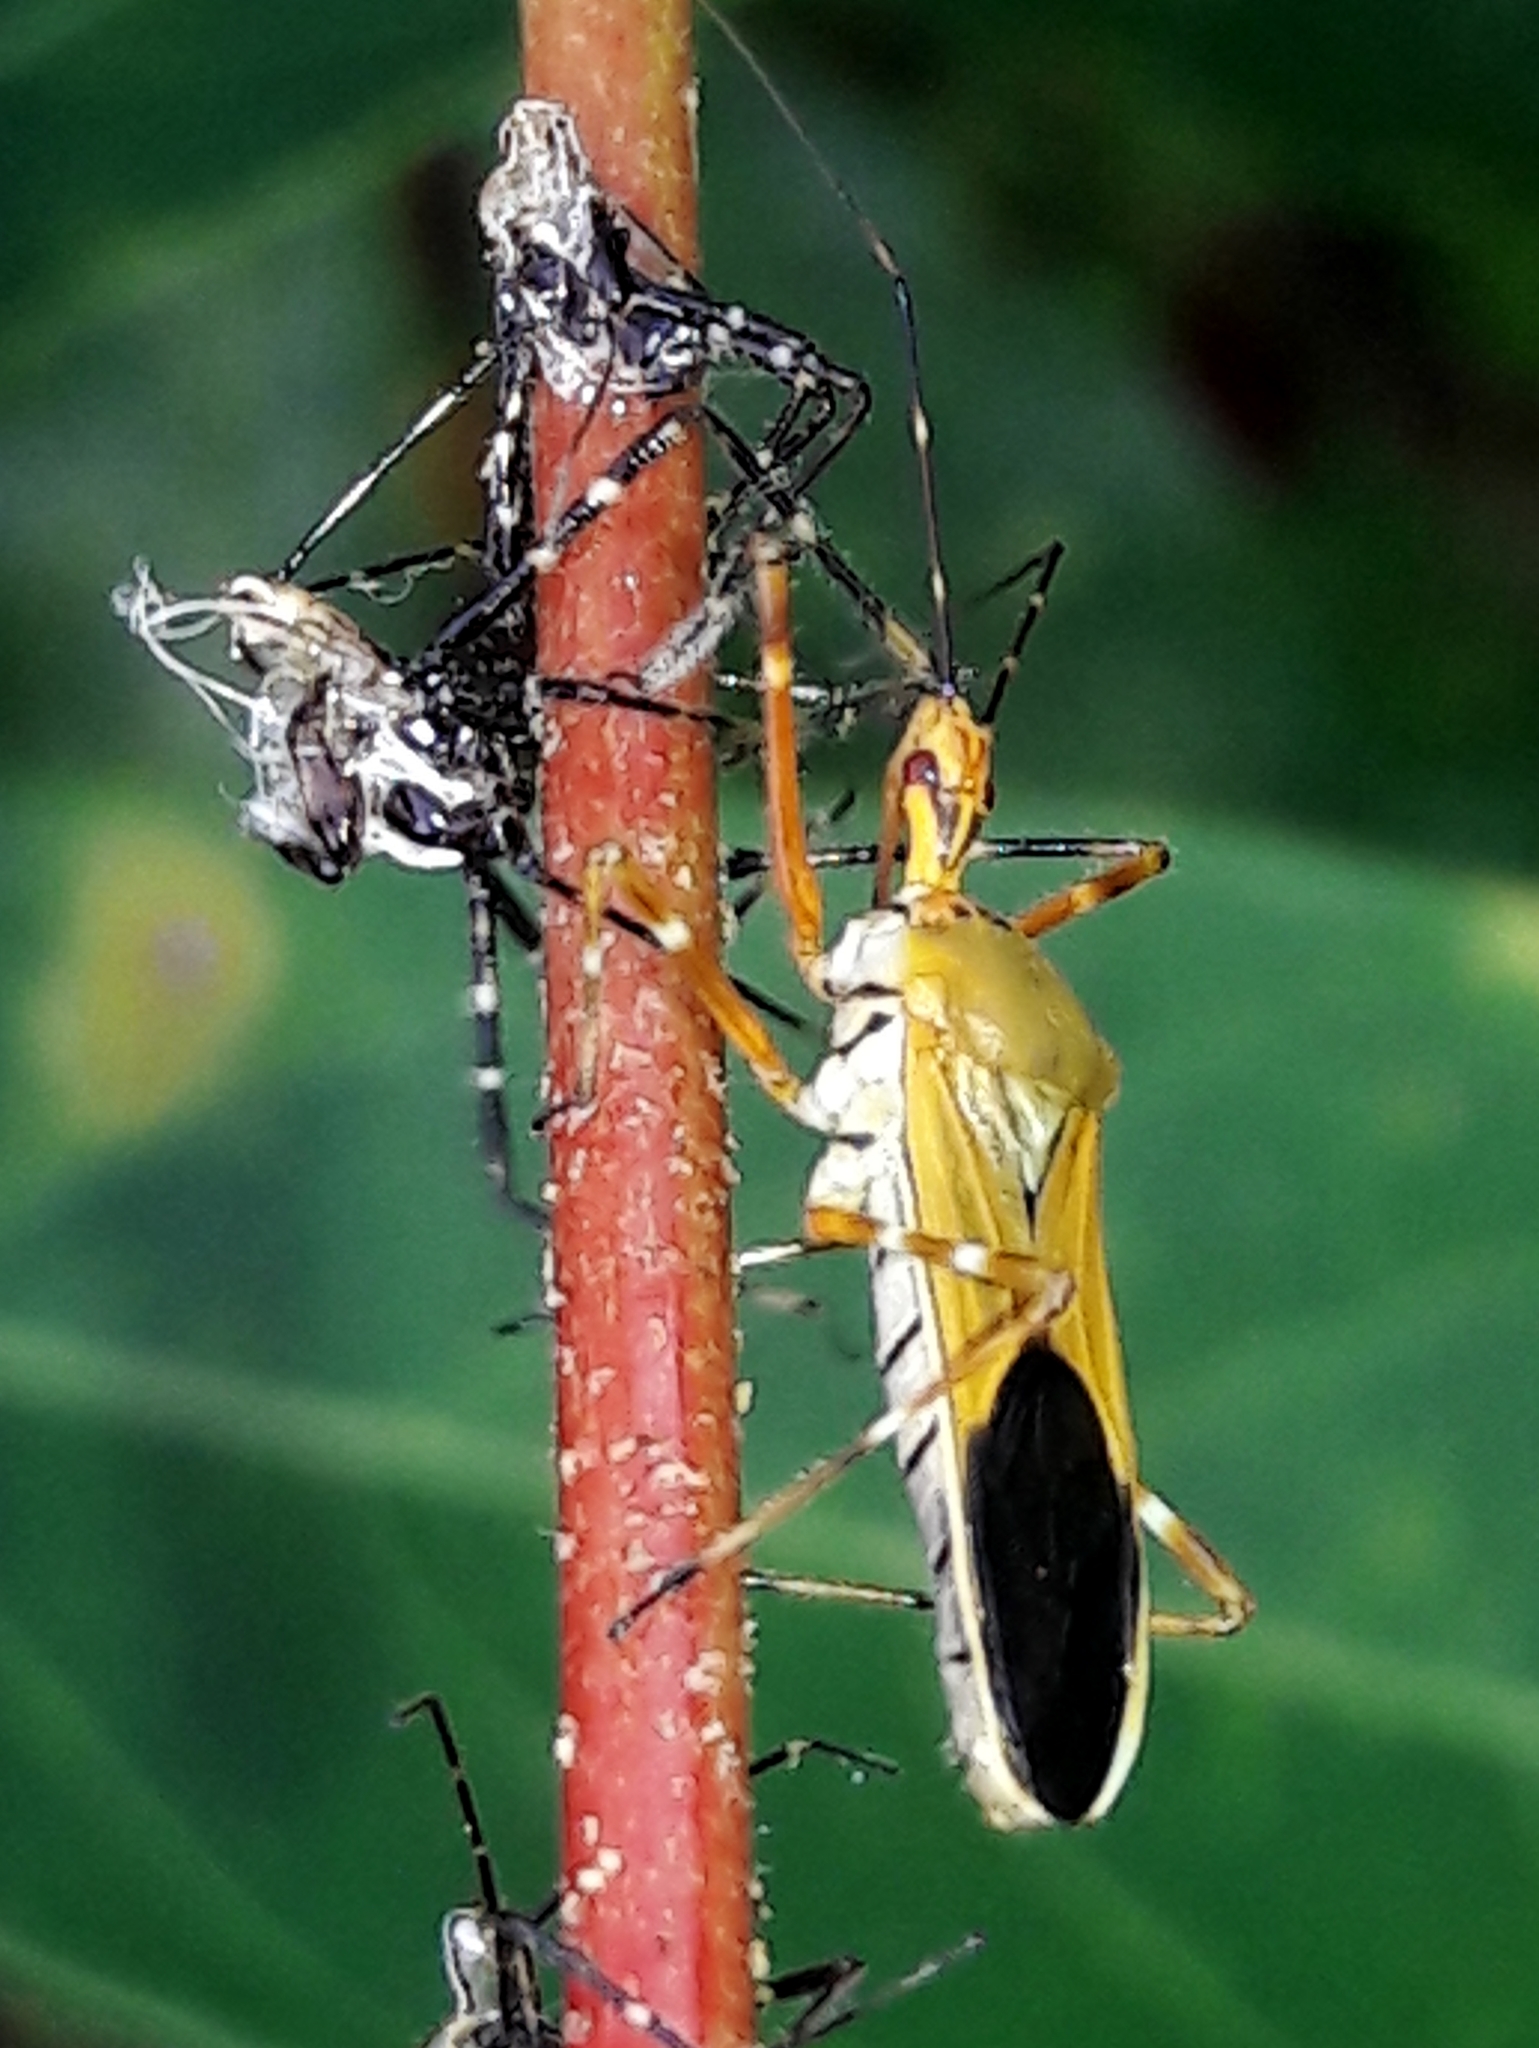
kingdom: Animalia
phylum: Arthropoda
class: Insecta
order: Hemiptera
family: Reduviidae
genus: Zelus
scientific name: Zelus laticornis
